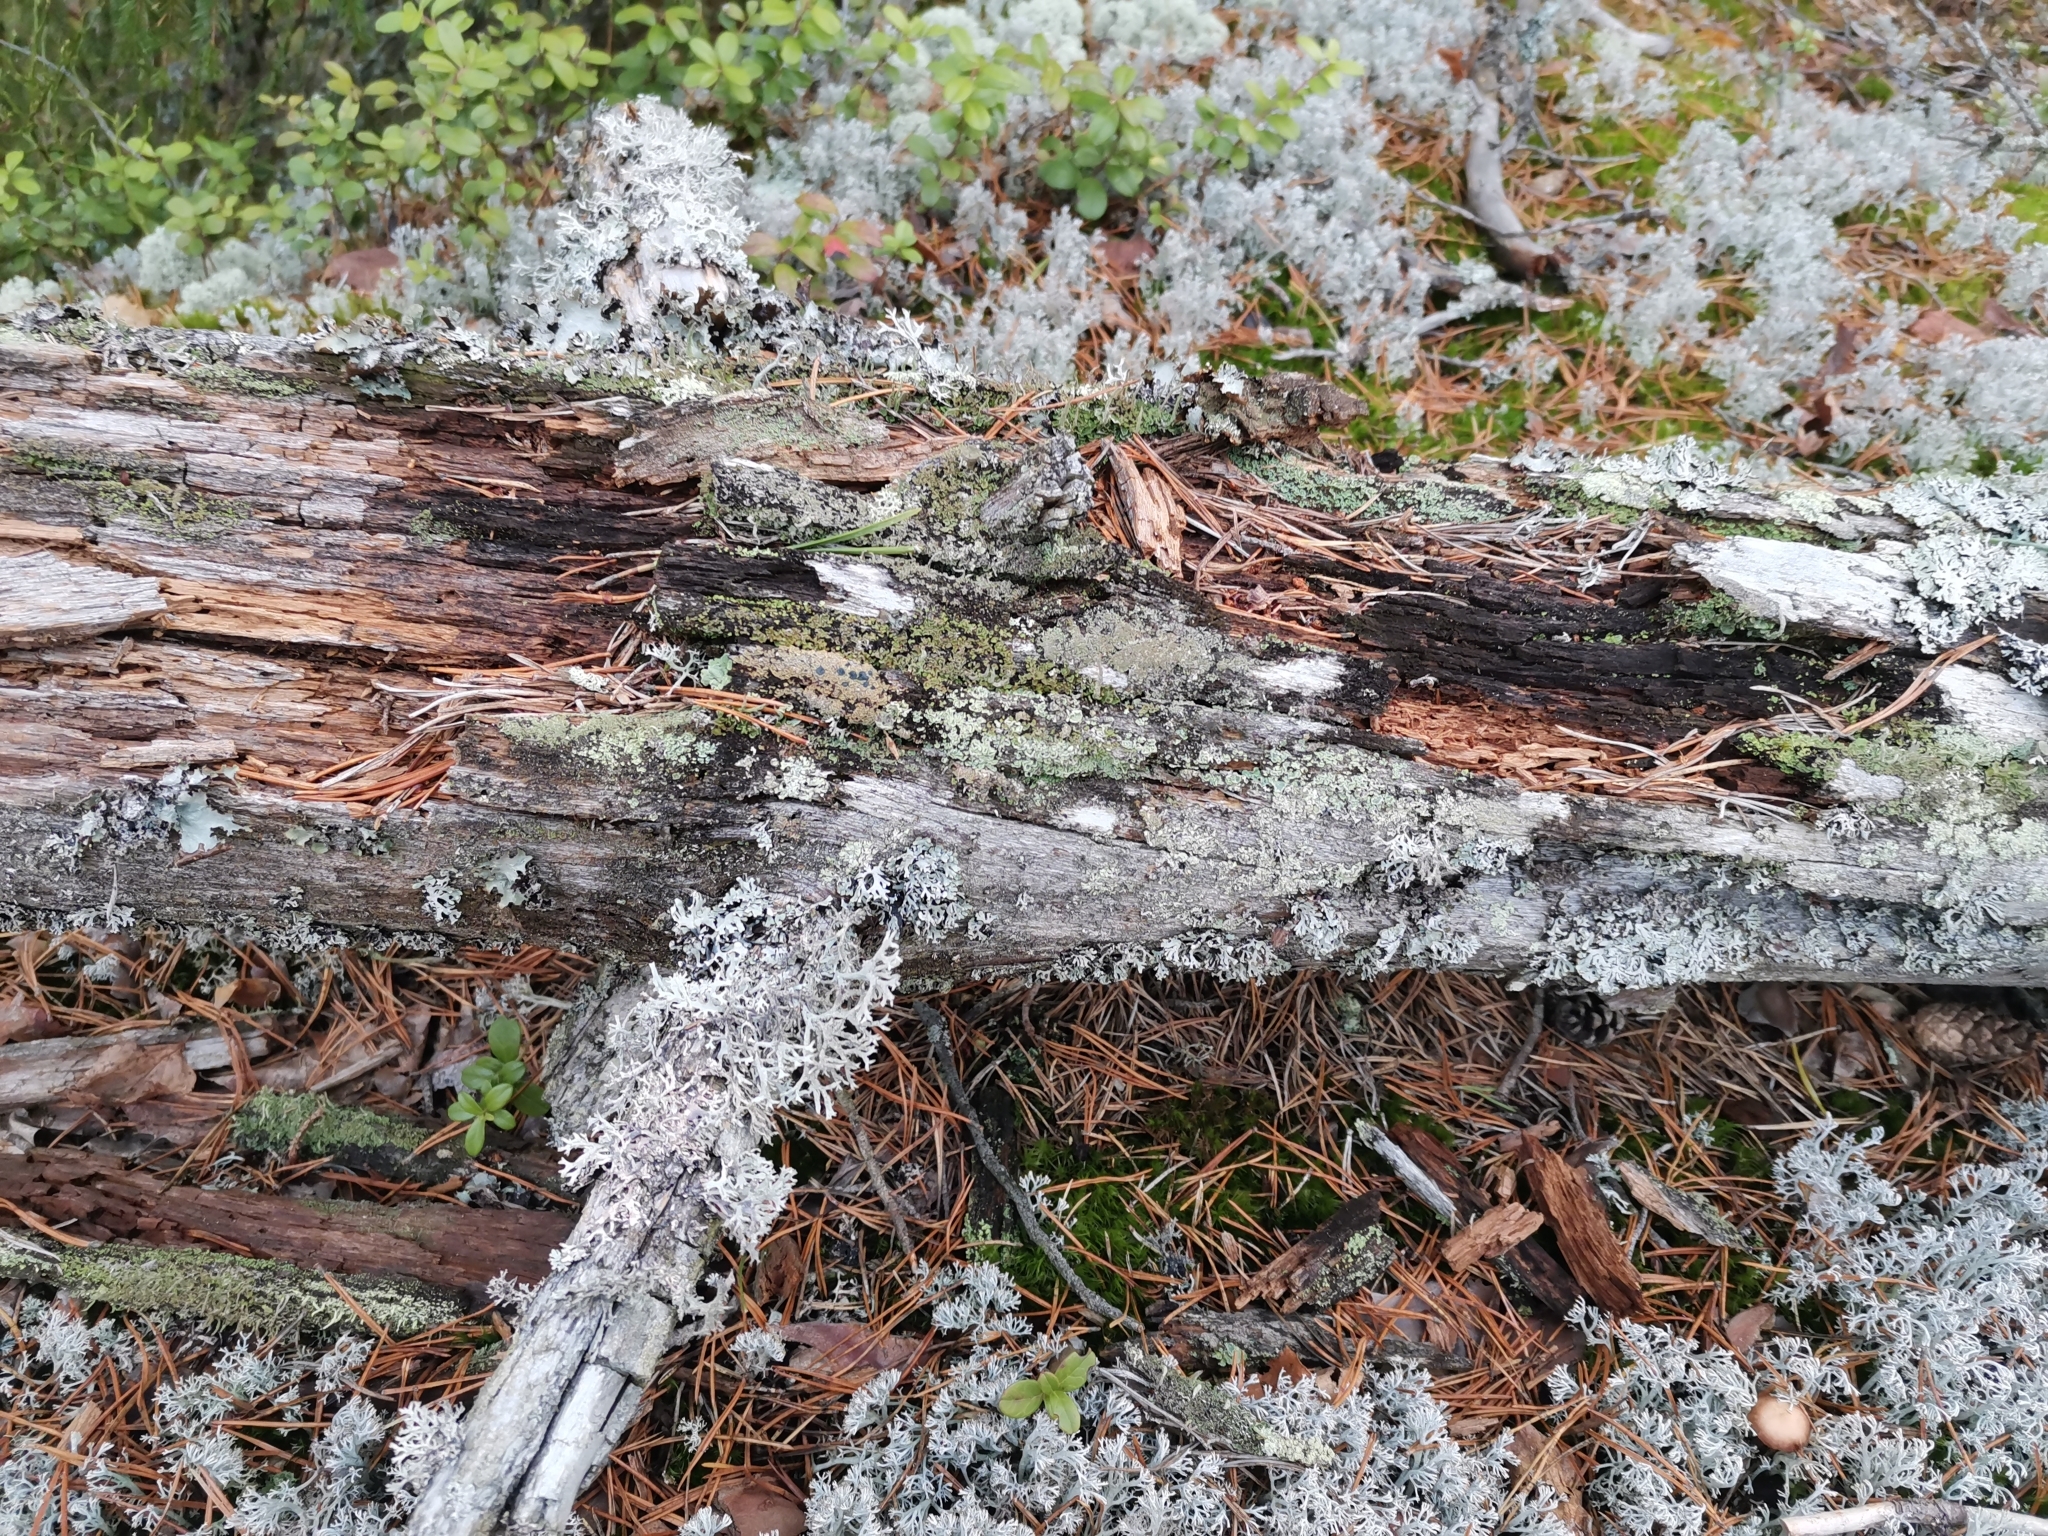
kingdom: Fungi
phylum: Ascomycota
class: Lecanoromycetes
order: Umbilicariales
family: Ophioparmaceae
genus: Hypocenomyce
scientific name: Hypocenomyce scalaris
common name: Common clam lichen
